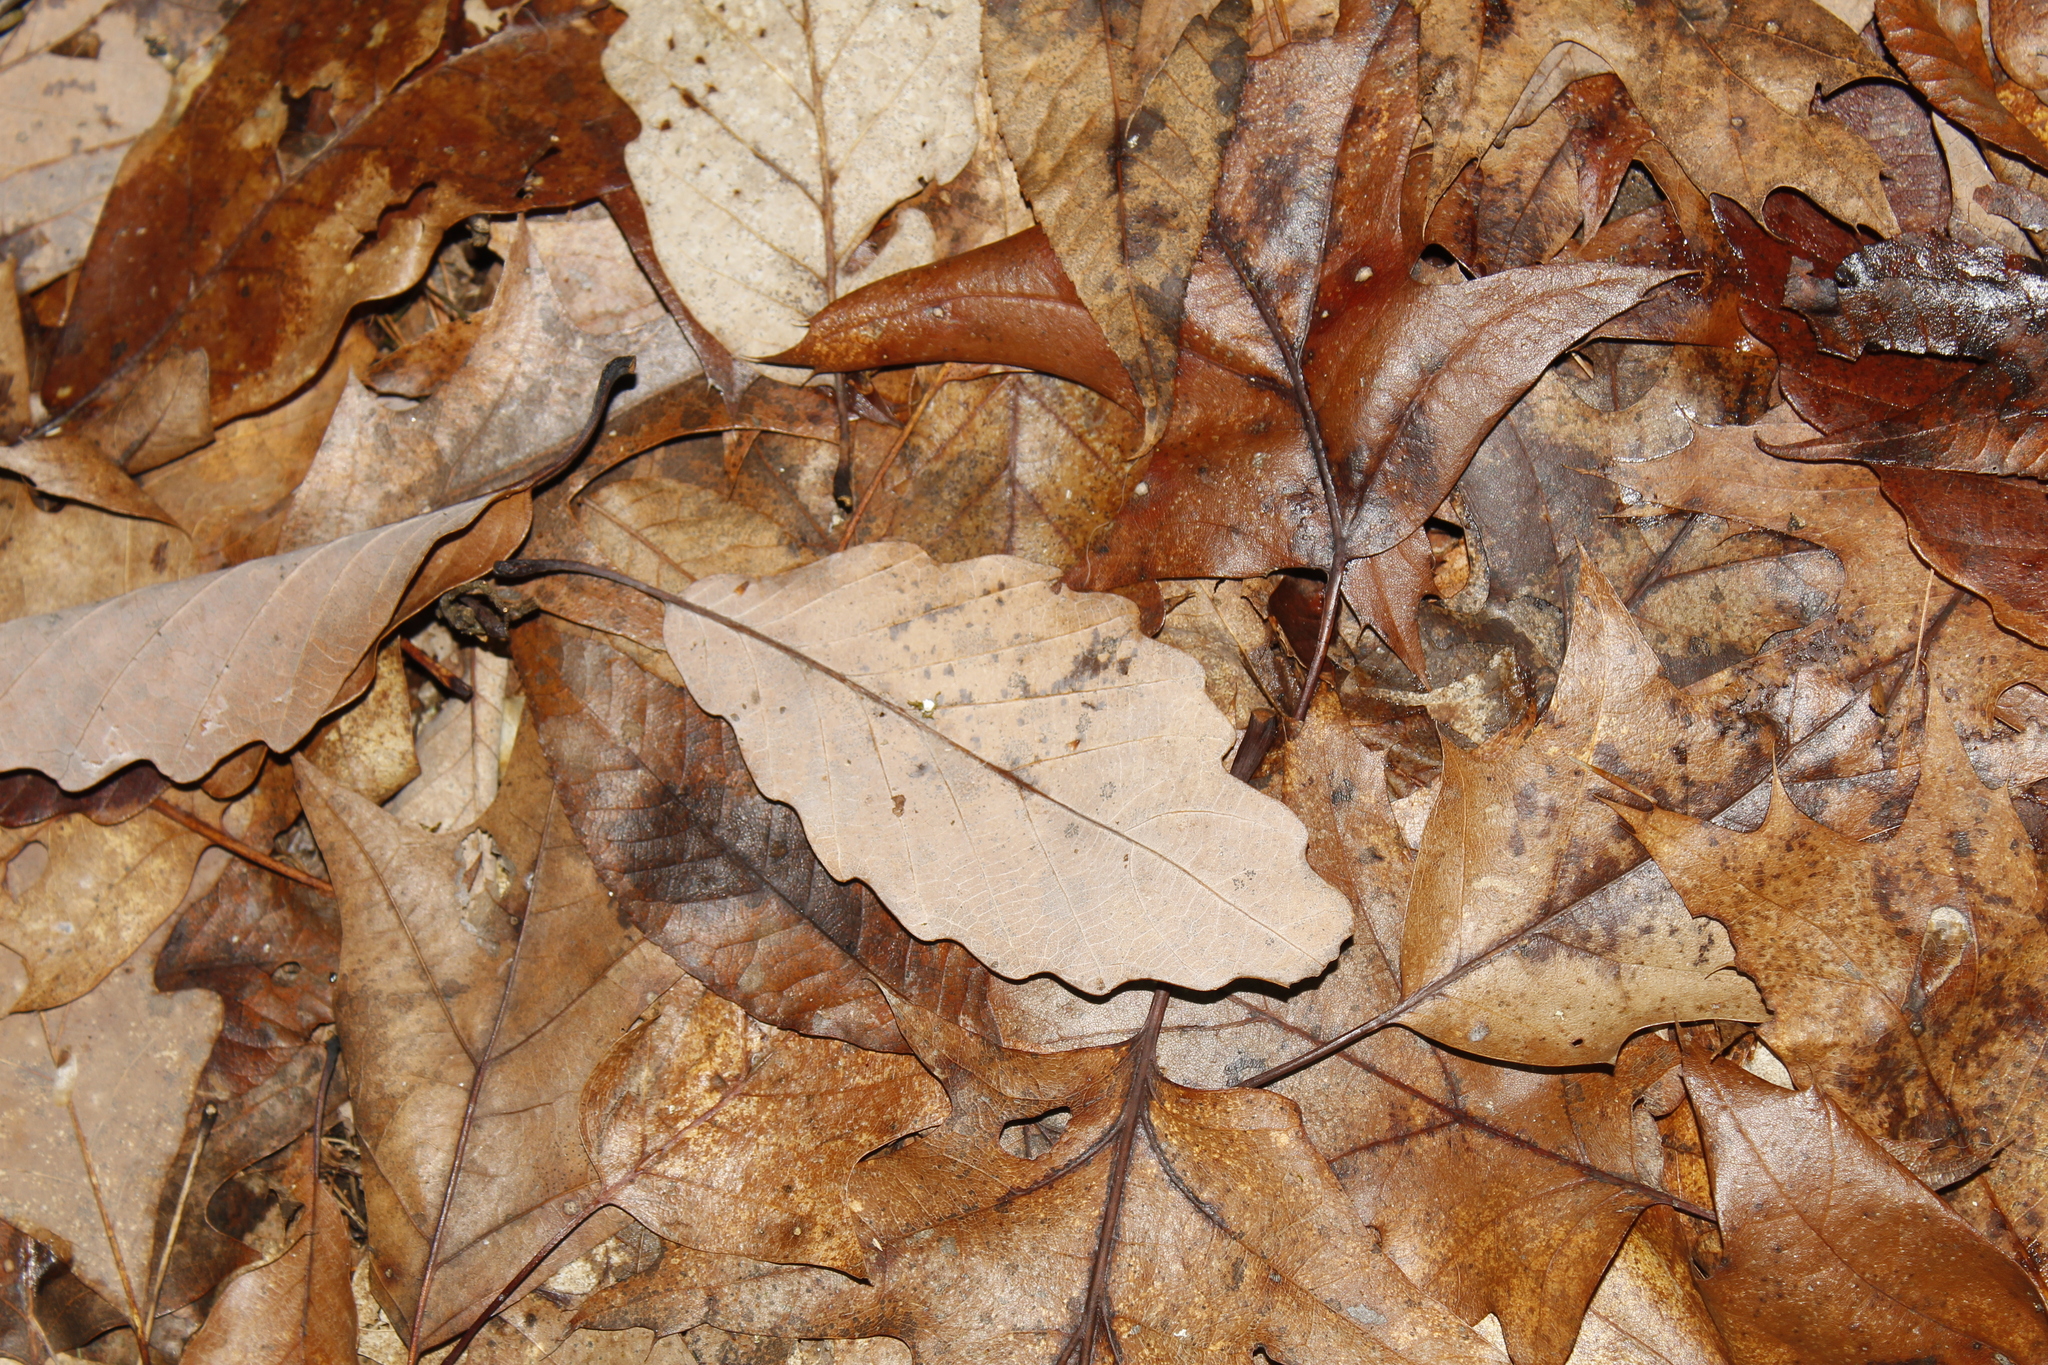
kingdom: Plantae
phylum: Tracheophyta
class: Magnoliopsida
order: Fagales
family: Fagaceae
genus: Quercus
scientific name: Quercus montana
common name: Chestnut oak
